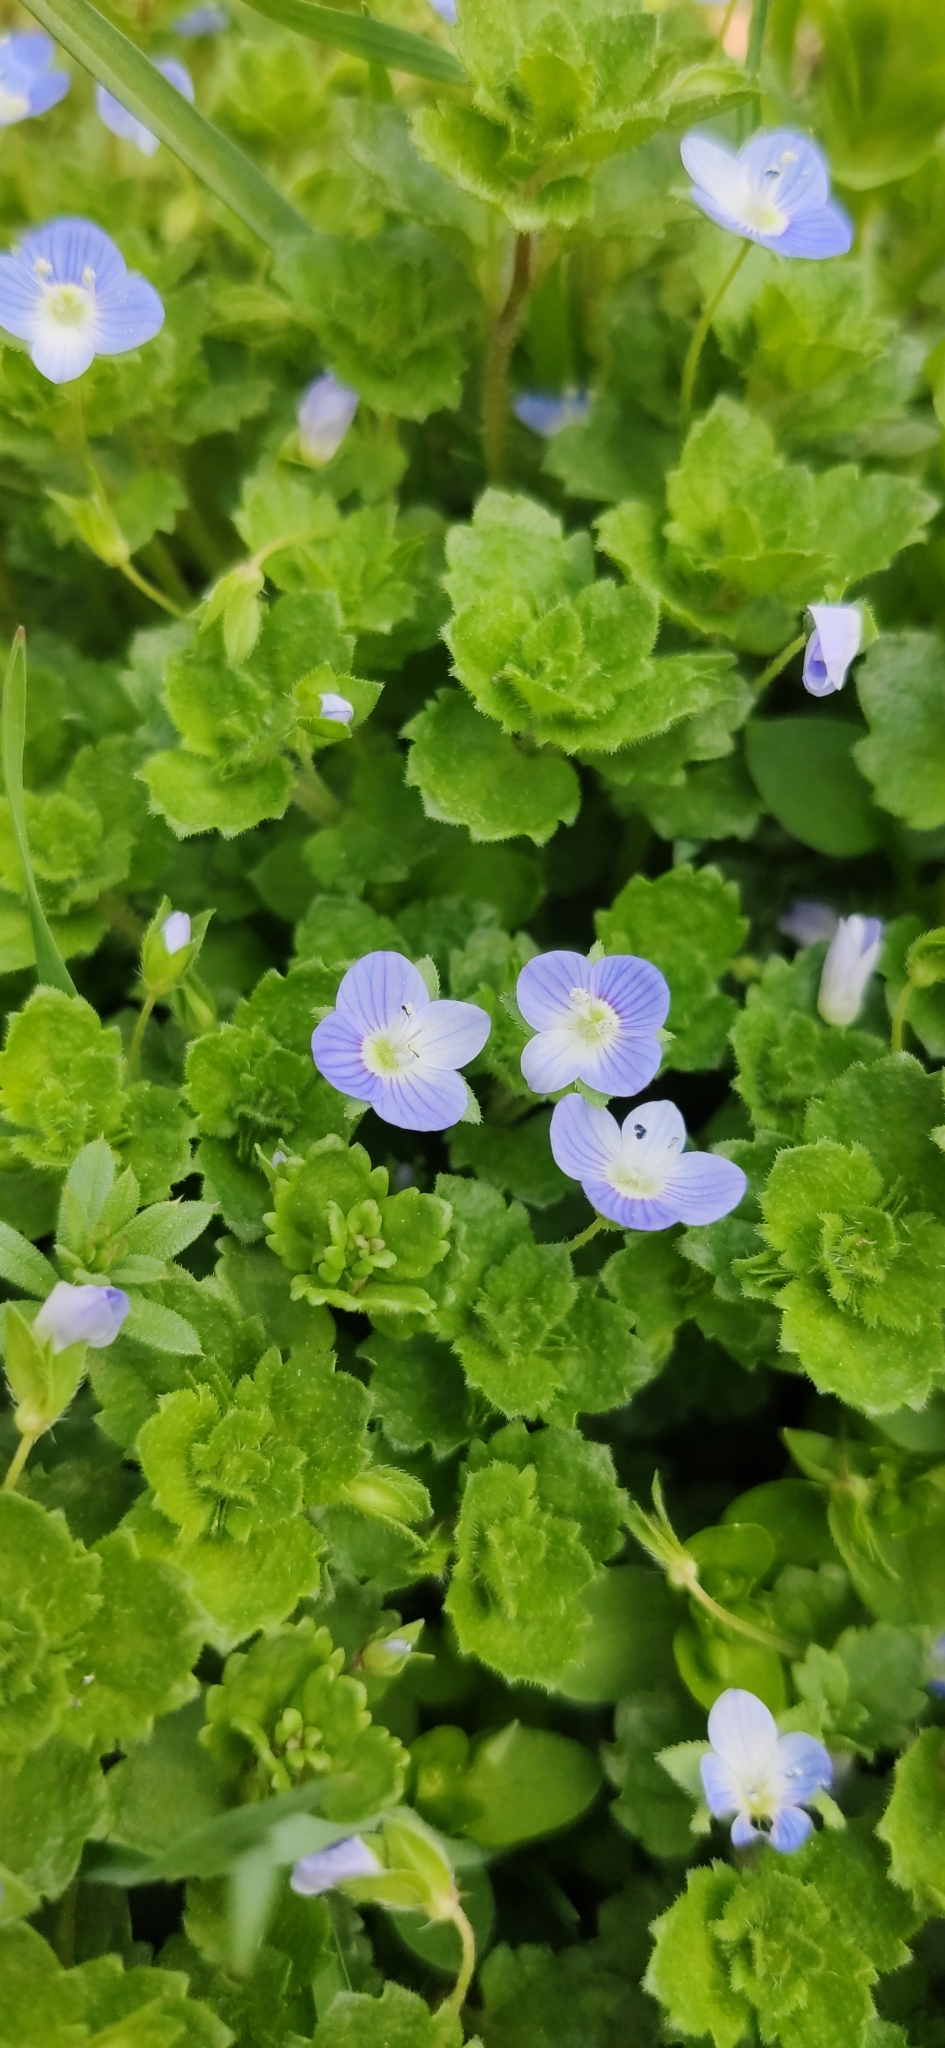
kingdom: Plantae
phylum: Tracheophyta
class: Magnoliopsida
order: Lamiales
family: Plantaginaceae
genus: Veronica
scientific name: Veronica persica
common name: Common field-speedwell
